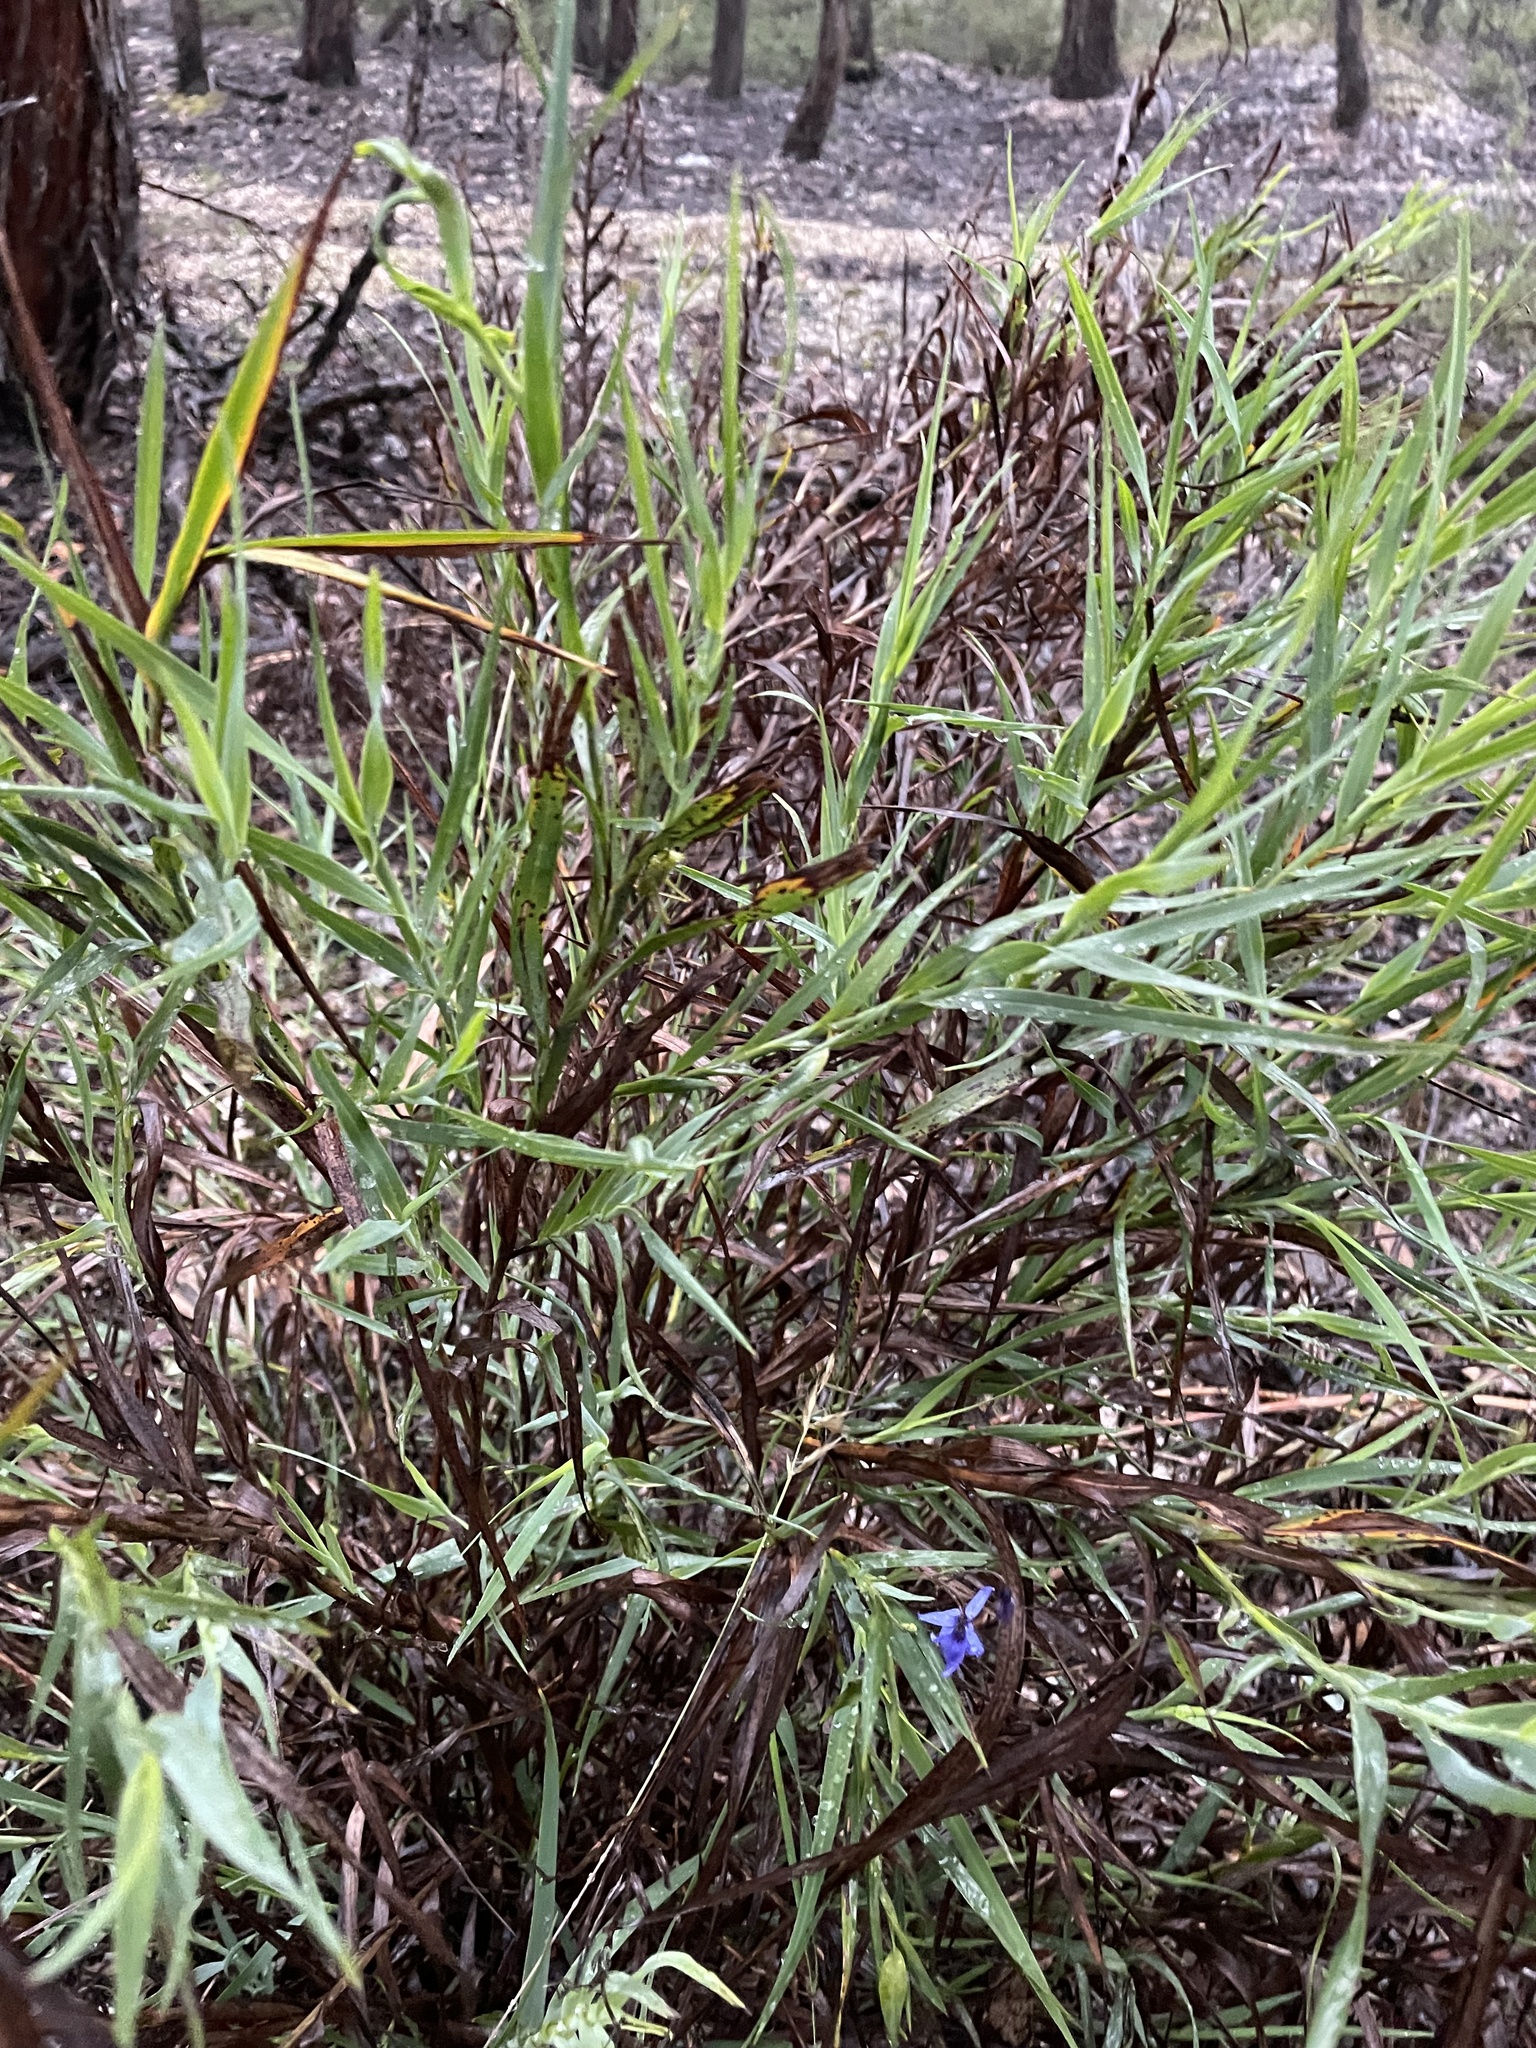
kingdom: Plantae
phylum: Tracheophyta
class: Liliopsida
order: Asparagales
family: Asphodelaceae
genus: Stypandra
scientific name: Stypandra glauca
